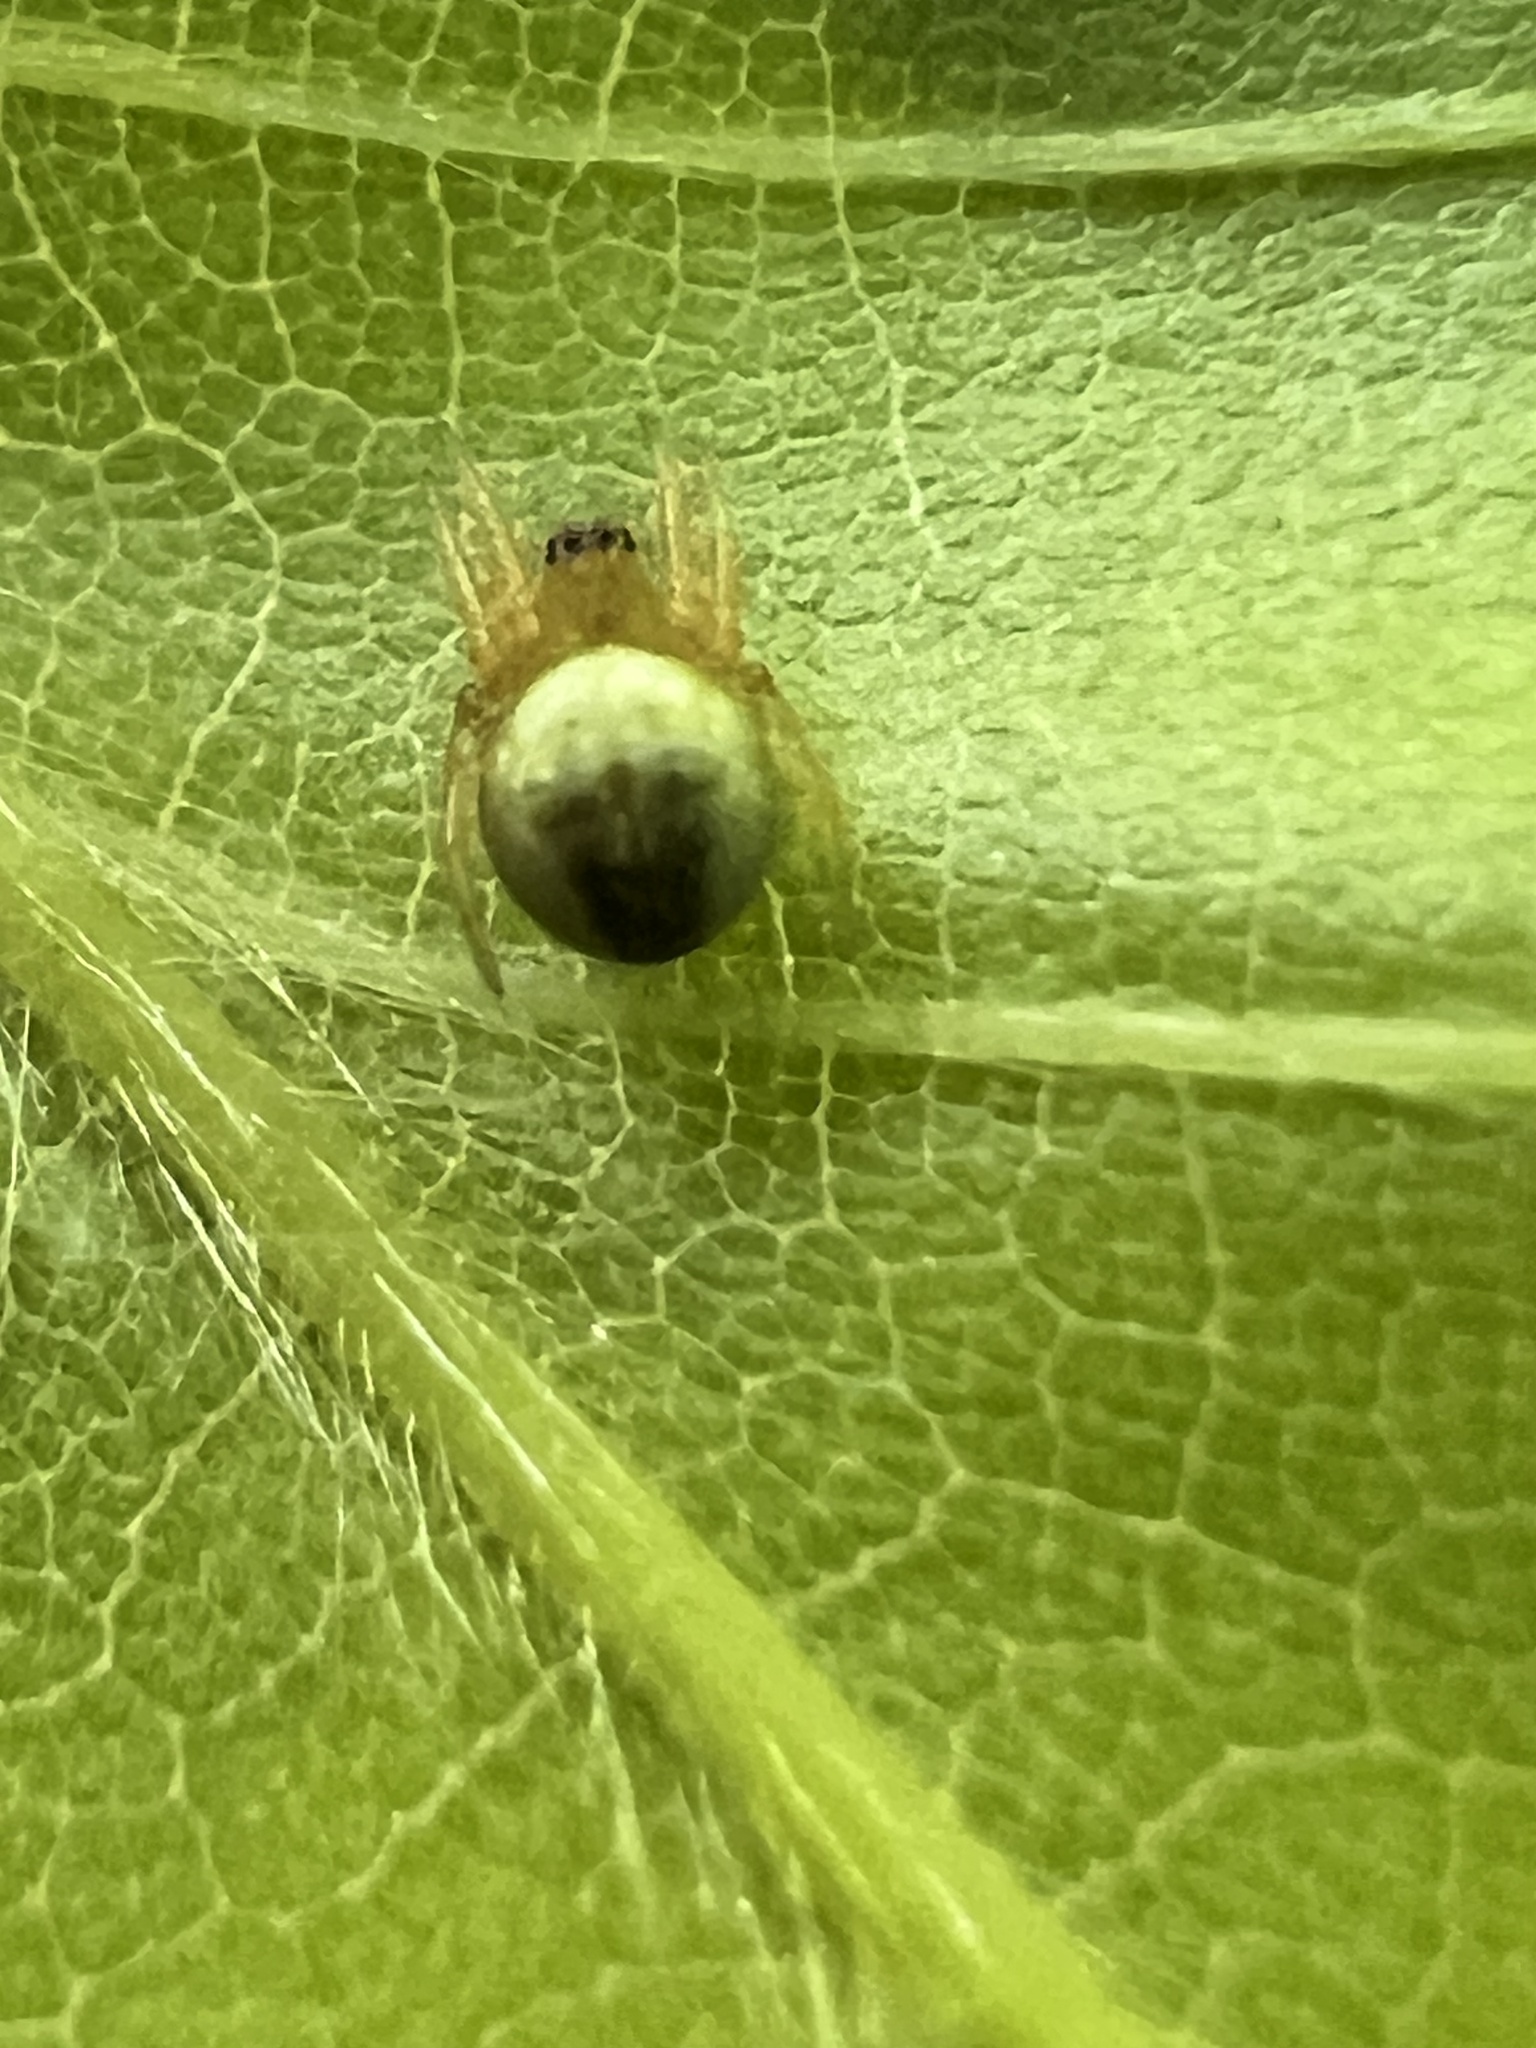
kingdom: Animalia
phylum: Arthropoda
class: Arachnida
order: Araneae
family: Araneidae
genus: Araniella
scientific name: Araniella displicata
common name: Sixspotted orb weaver
